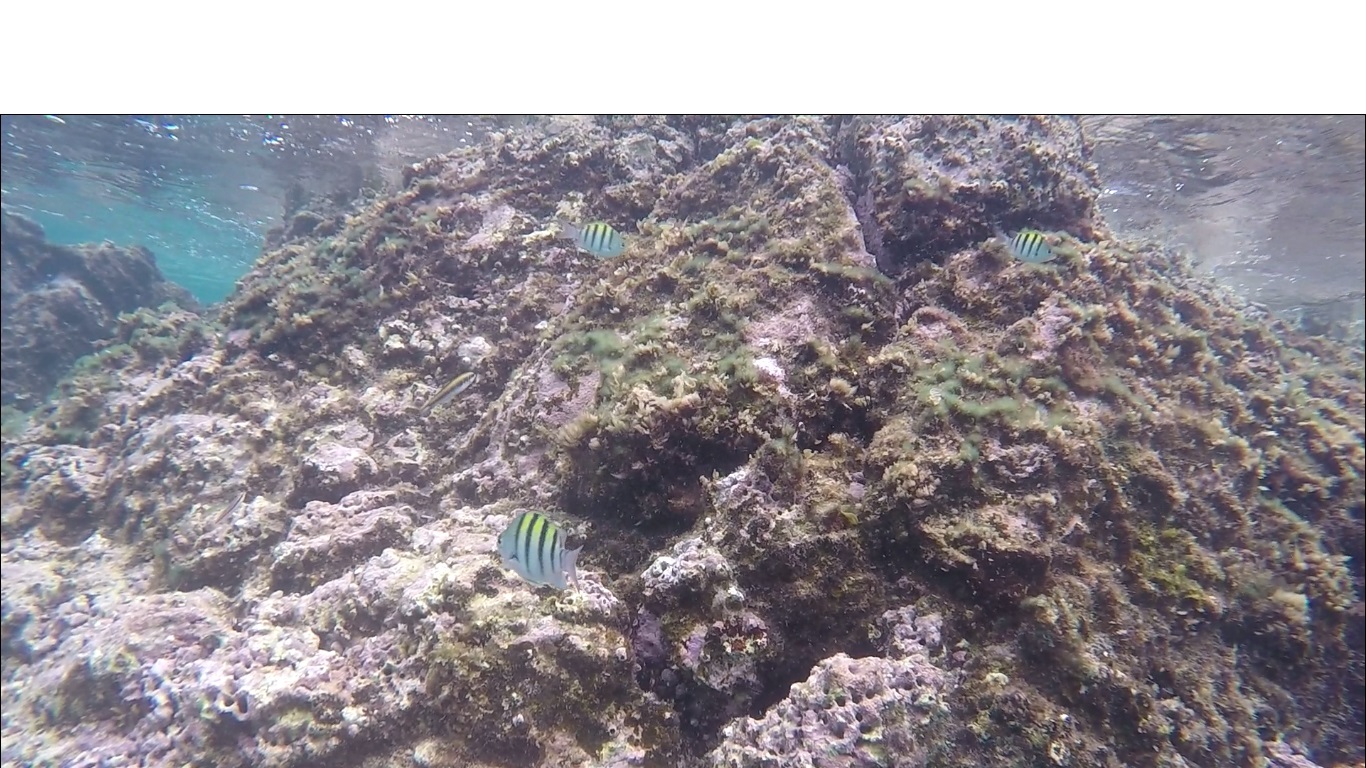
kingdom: Animalia
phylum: Chordata
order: Perciformes
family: Pomacentridae
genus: Abudefduf
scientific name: Abudefduf saxatilis
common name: Sergeant major
